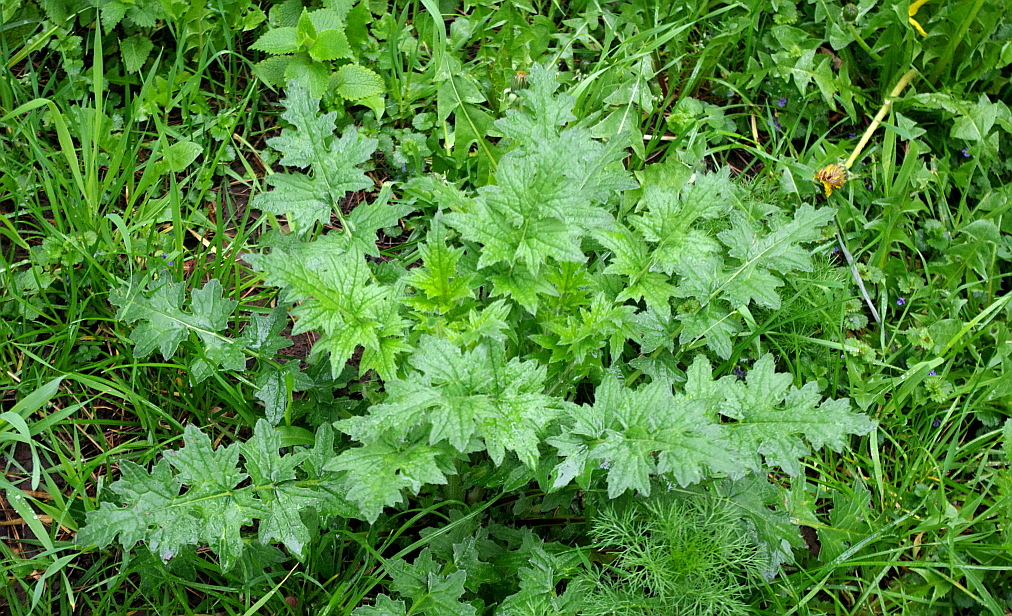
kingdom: Plantae
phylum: Tracheophyta
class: Magnoliopsida
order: Asterales
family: Asteraceae
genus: Carduus
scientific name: Carduus crispus
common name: Welted thistle
